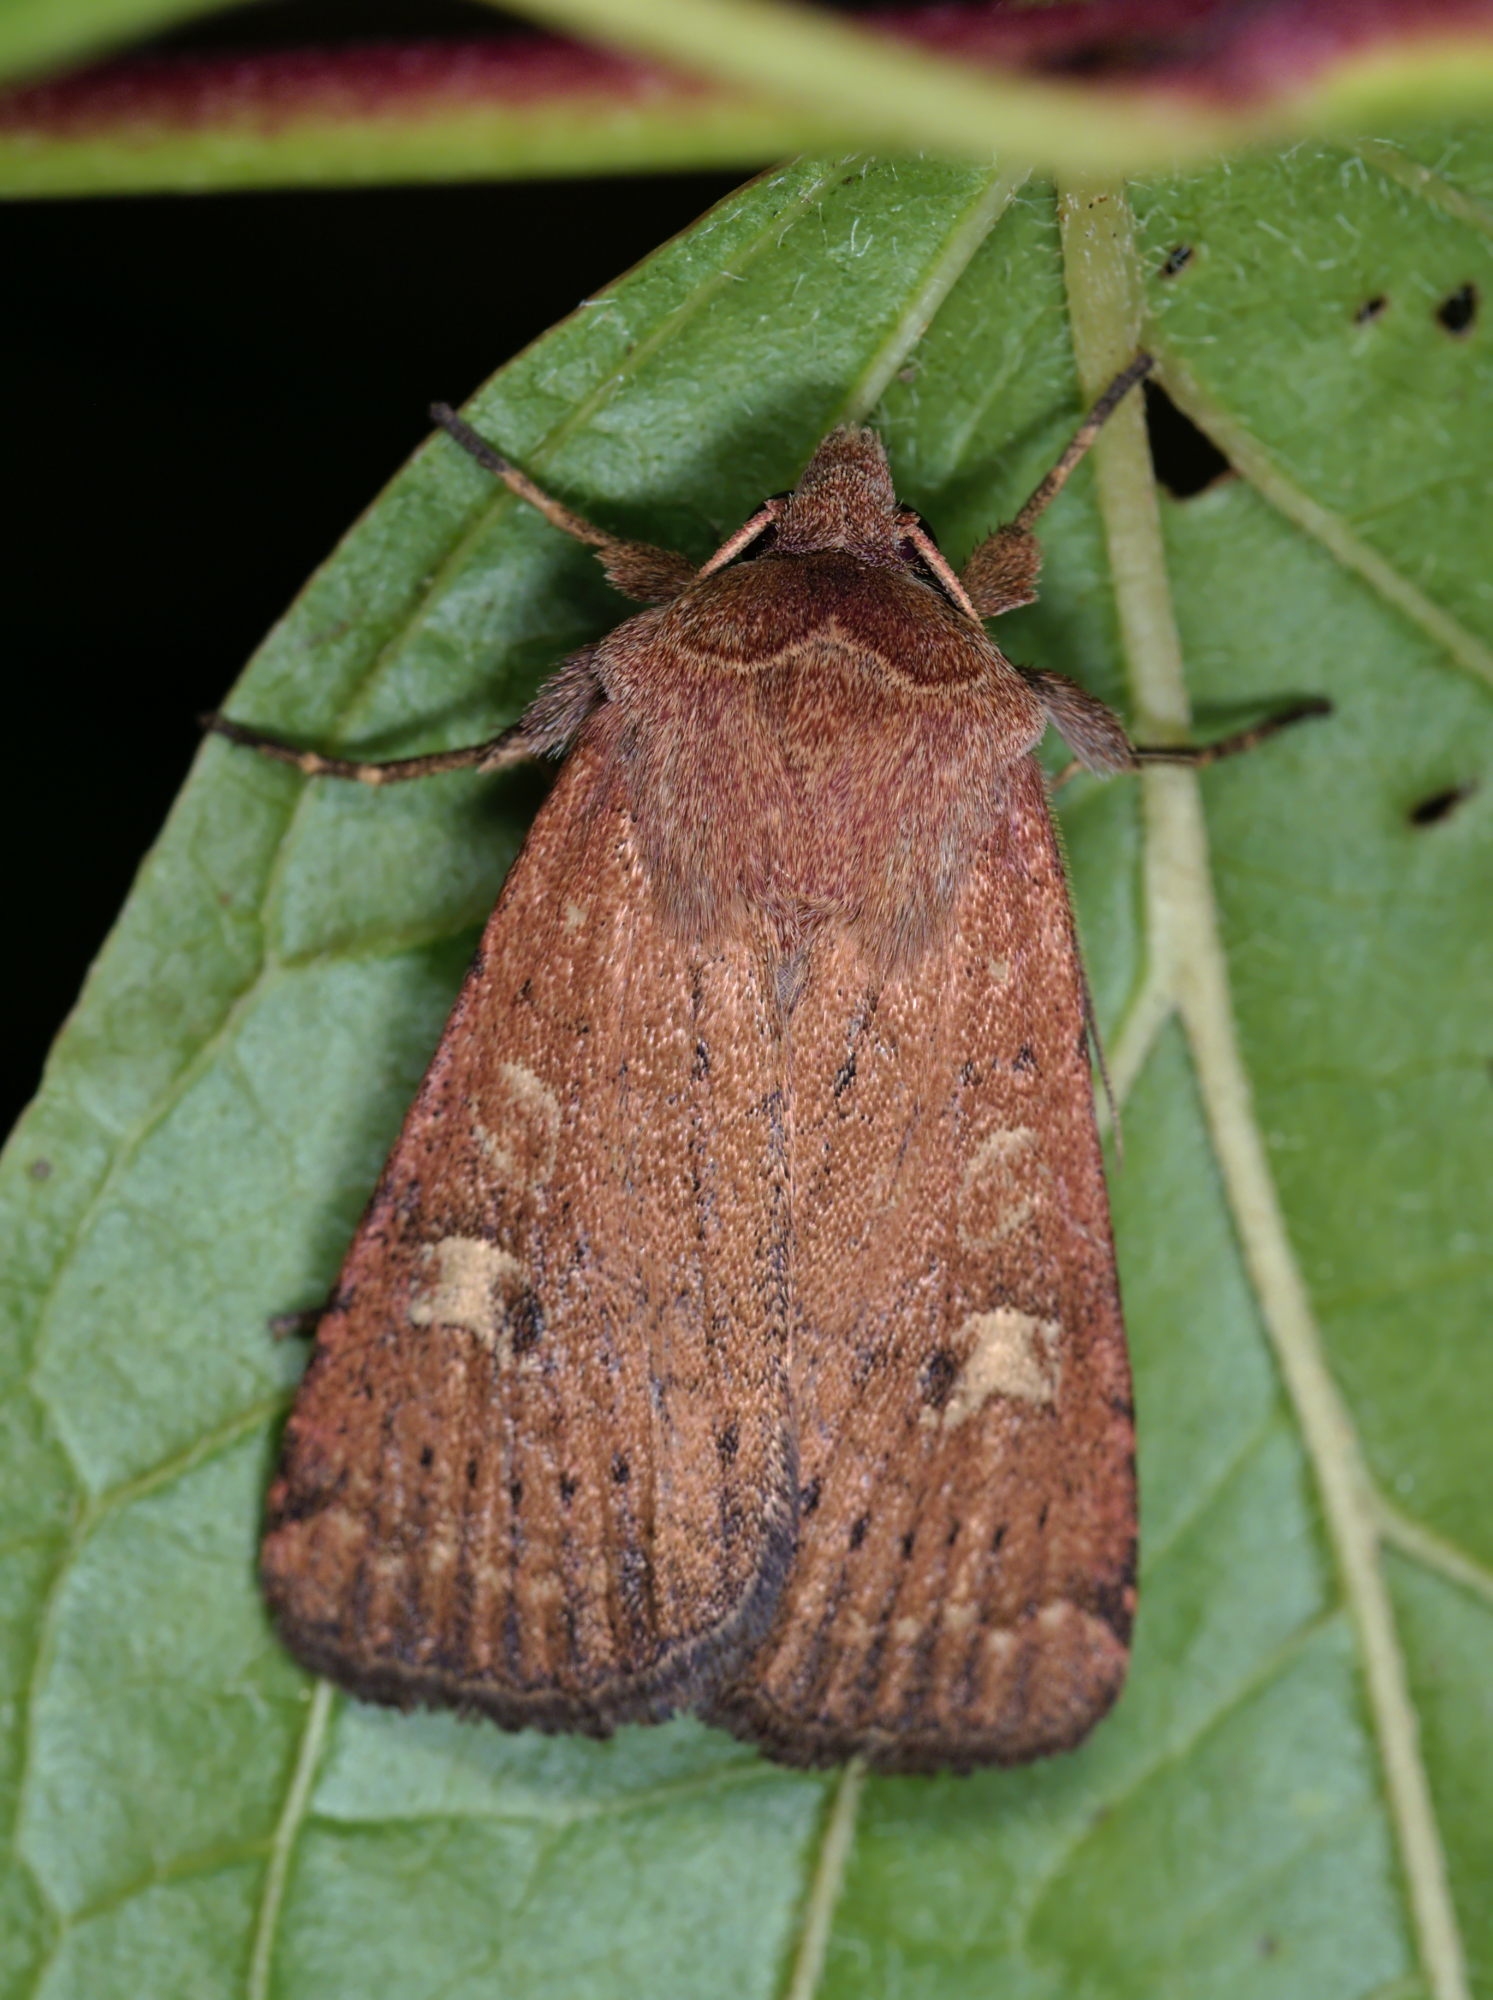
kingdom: Animalia
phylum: Arthropoda
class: Insecta
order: Lepidoptera
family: Noctuidae
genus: Xestia
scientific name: Xestia xanthographa
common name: Square-spot rustic
